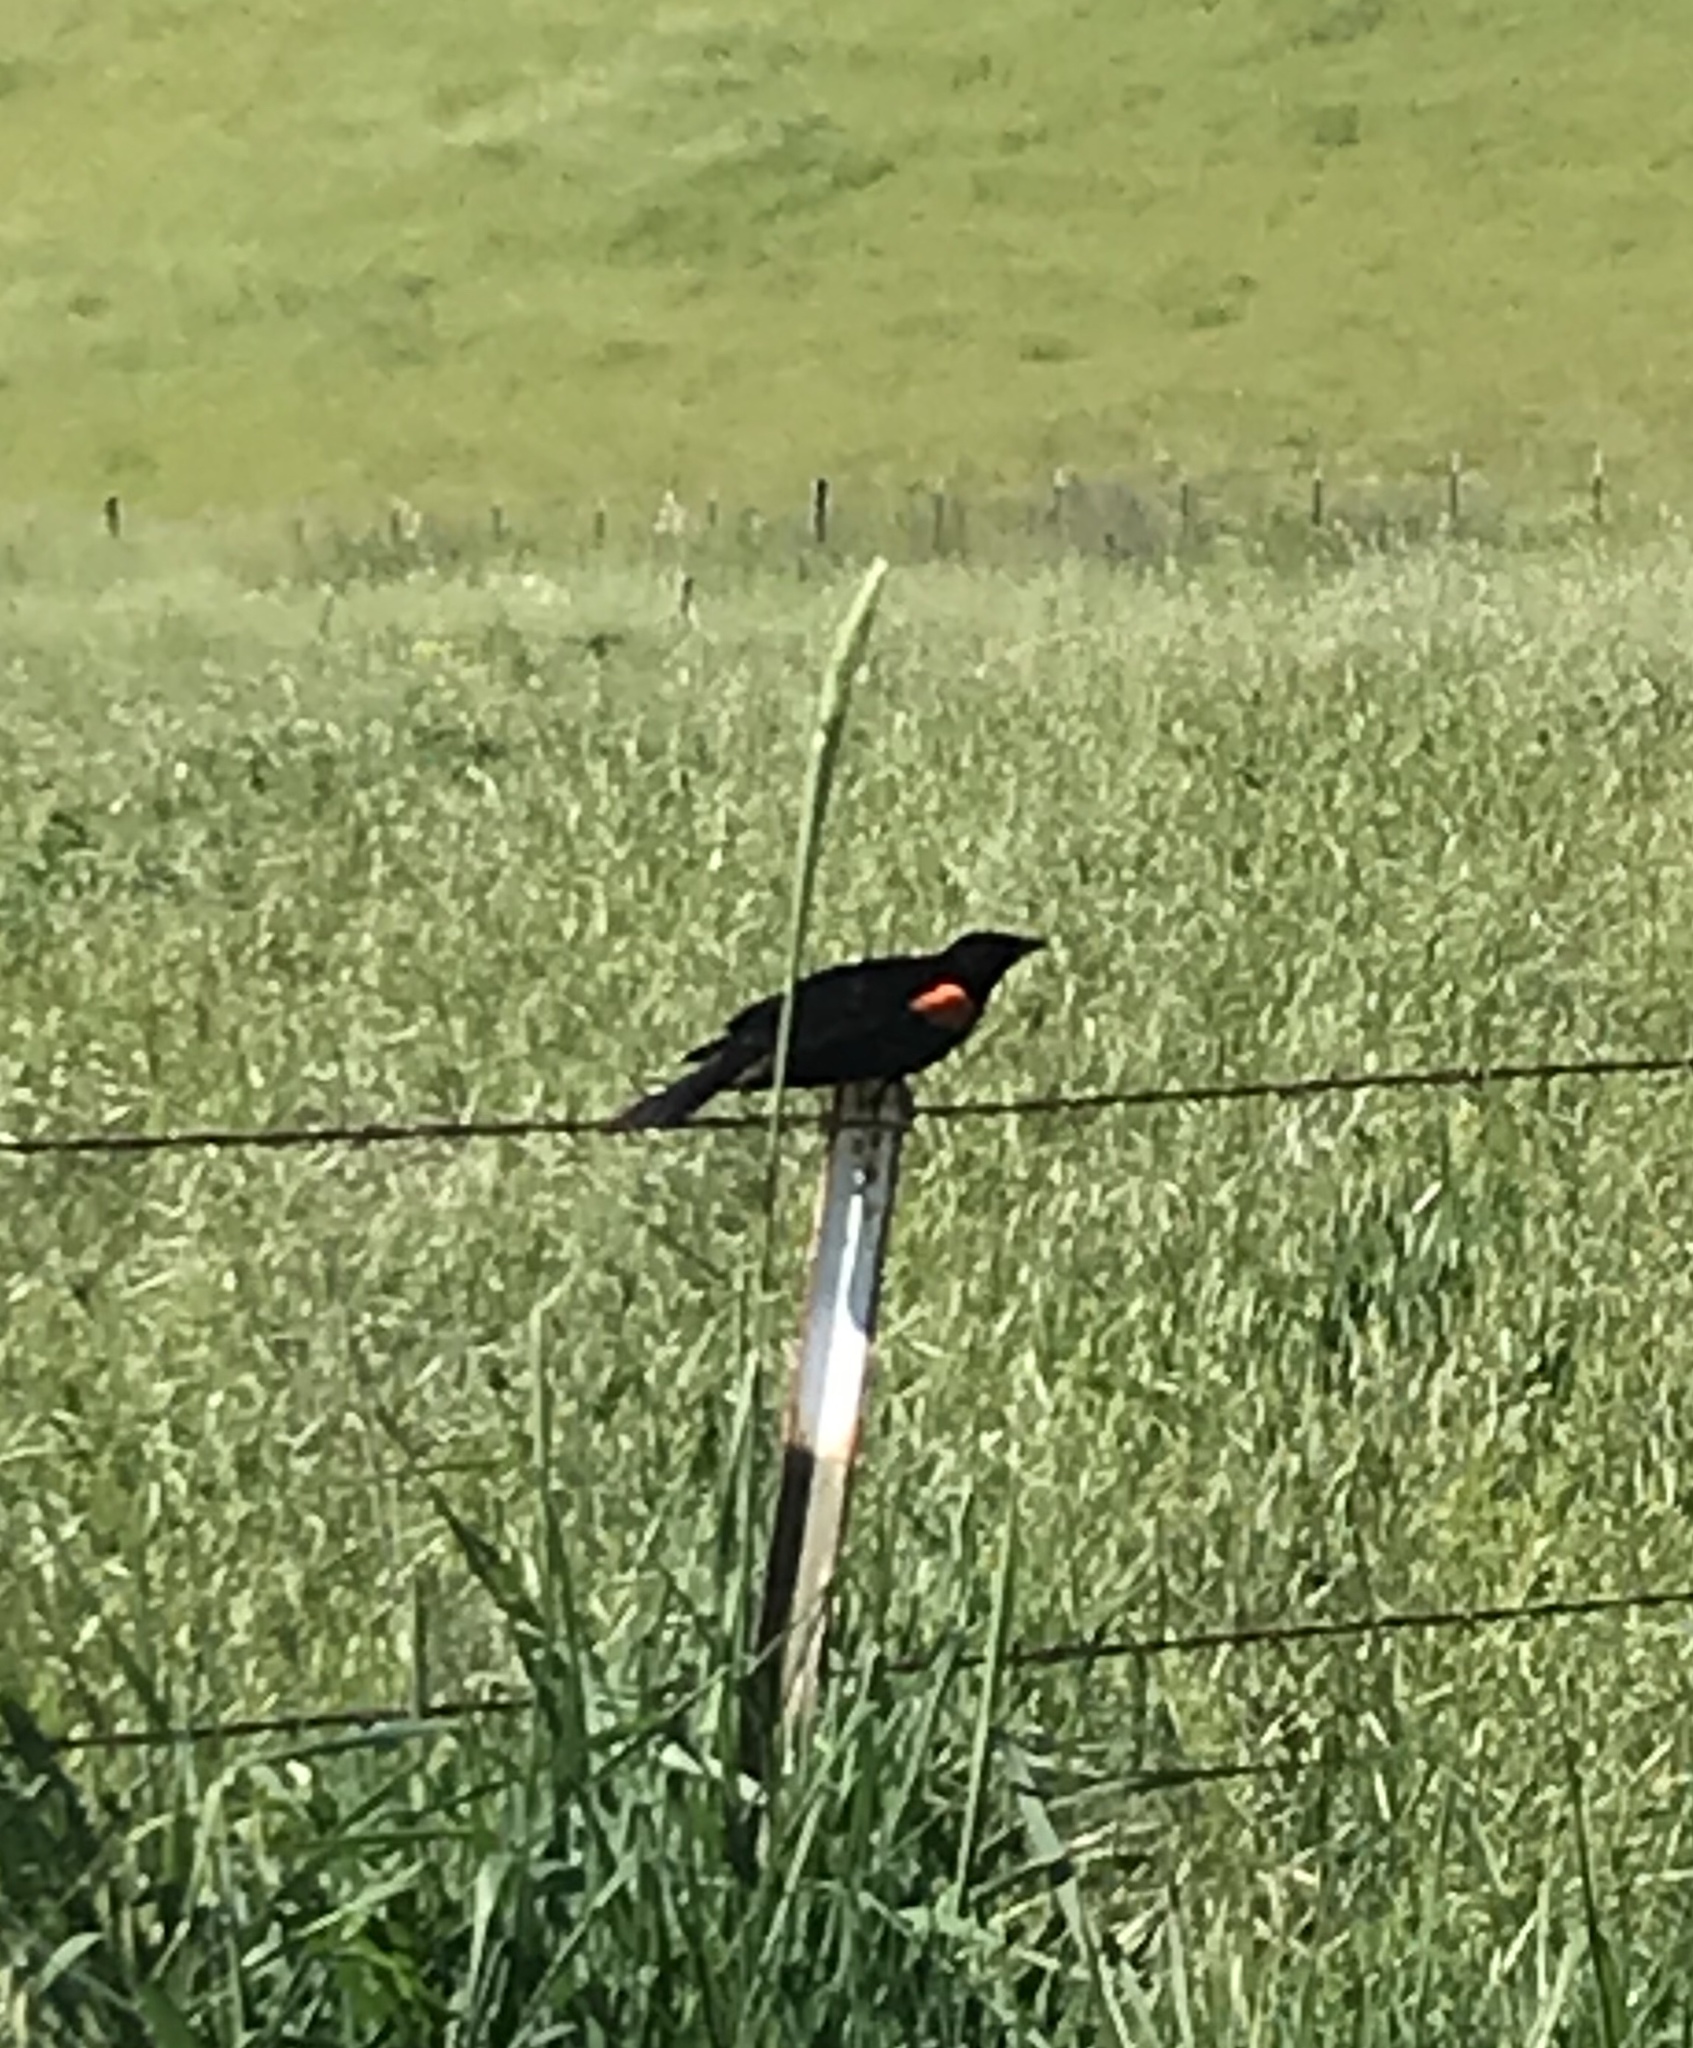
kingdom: Animalia
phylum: Chordata
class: Aves
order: Passeriformes
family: Icteridae
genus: Agelaius
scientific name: Agelaius phoeniceus
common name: Red-winged blackbird
